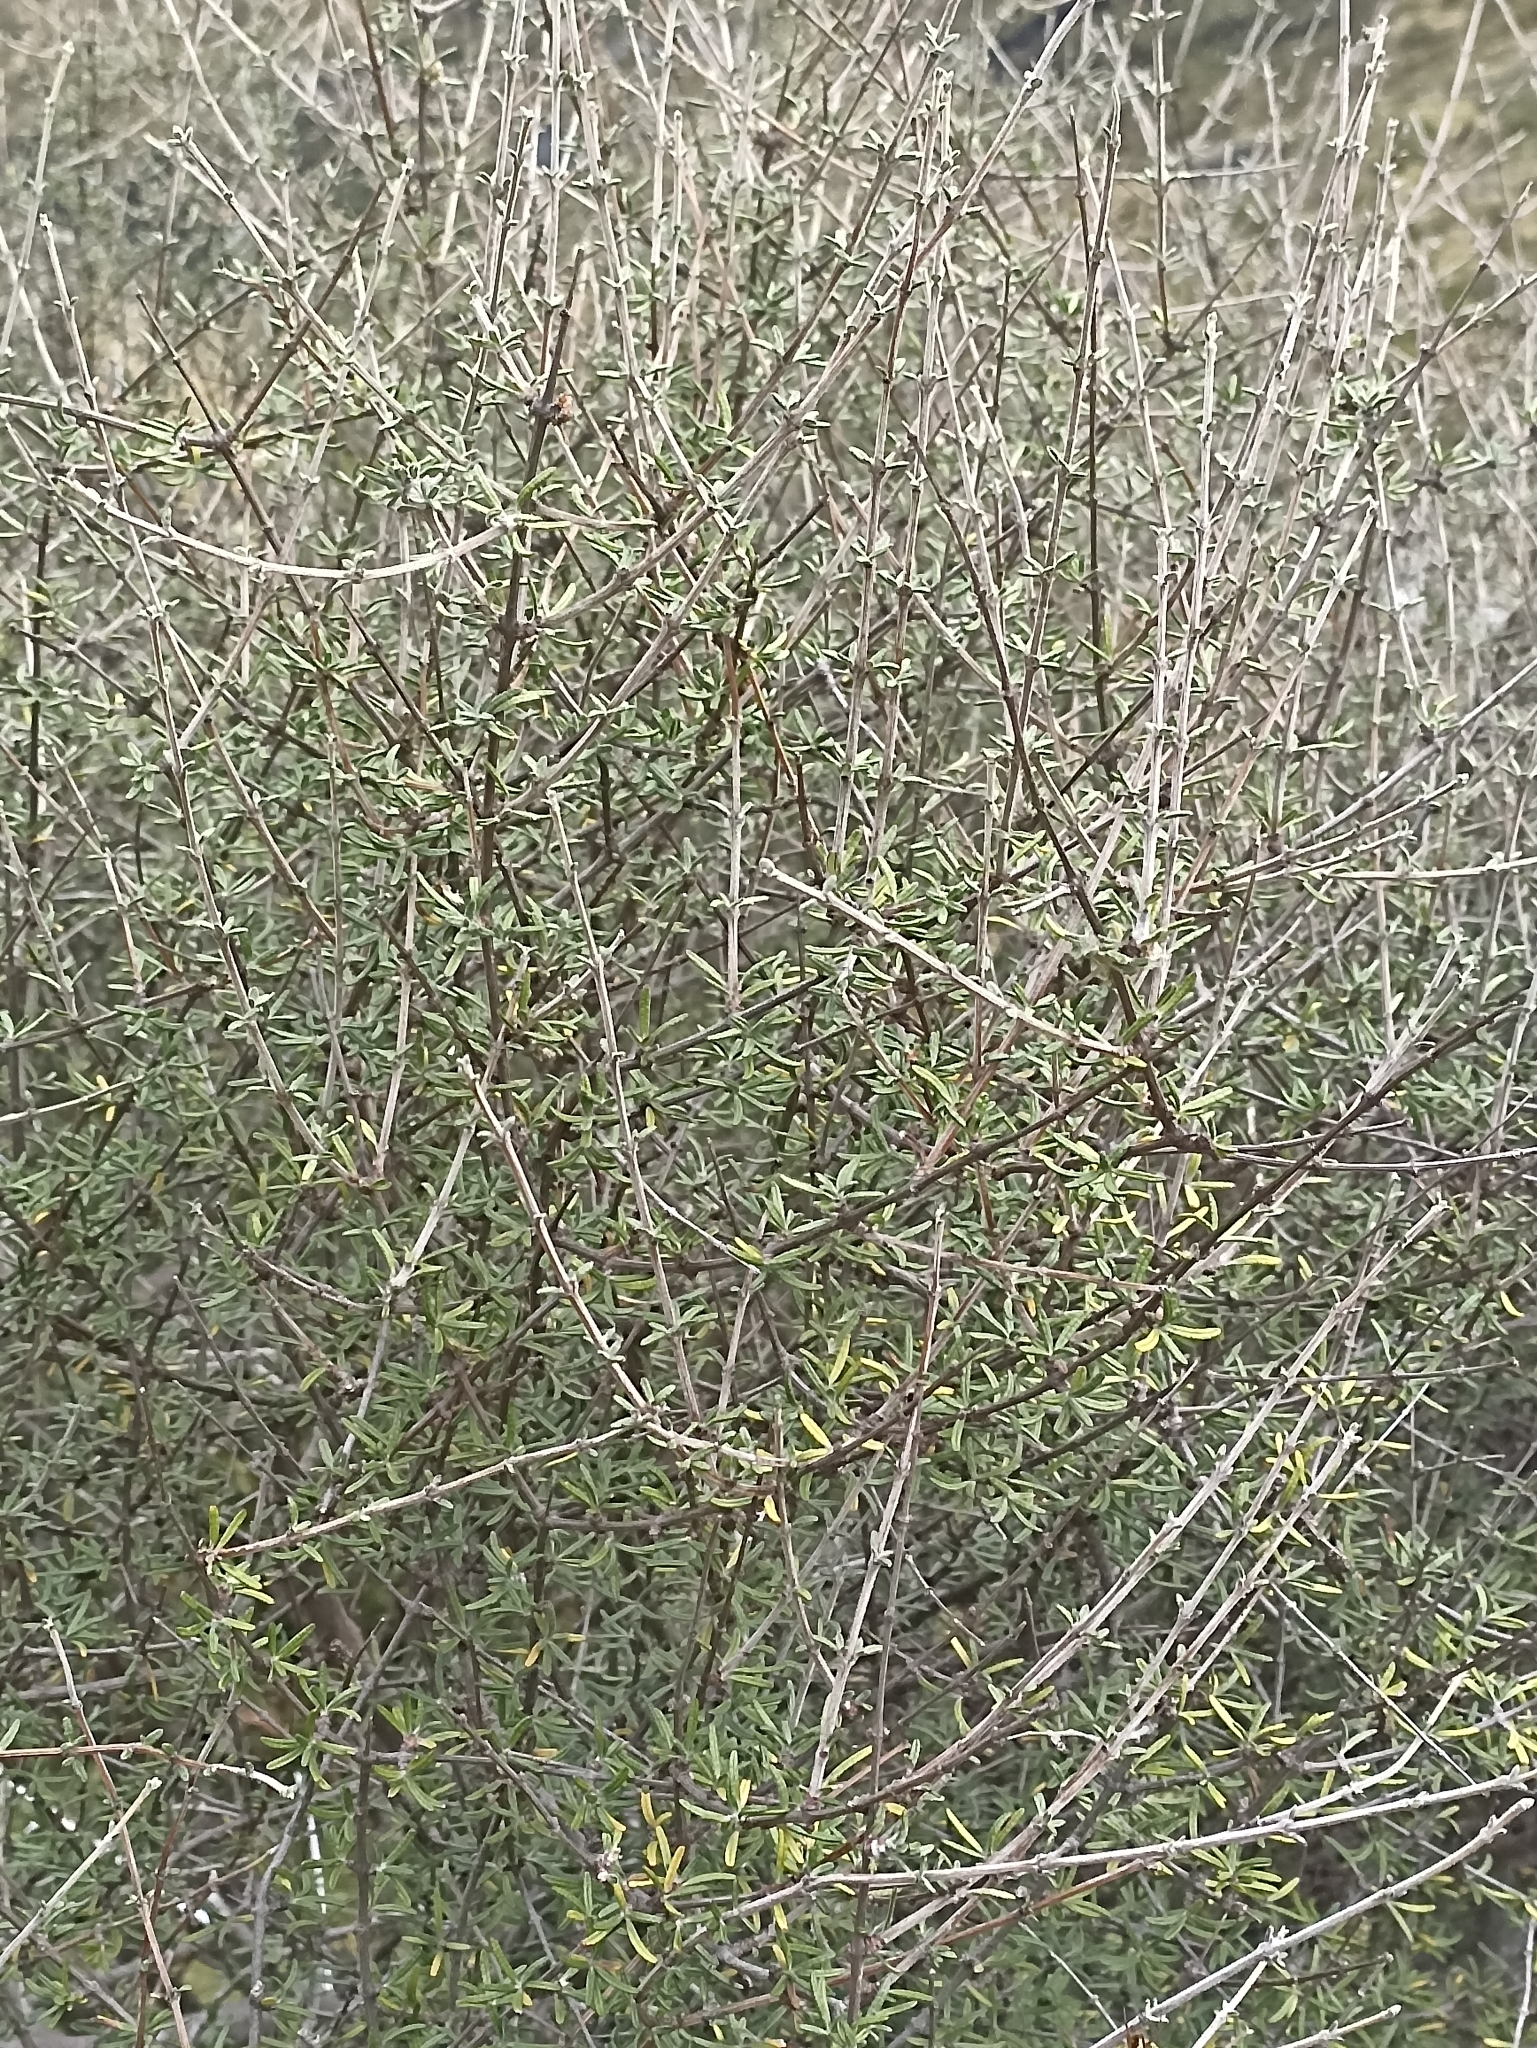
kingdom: Plantae
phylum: Tracheophyta
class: Magnoliopsida
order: Asterales
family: Asteraceae
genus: Olearia
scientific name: Olearia bullata
